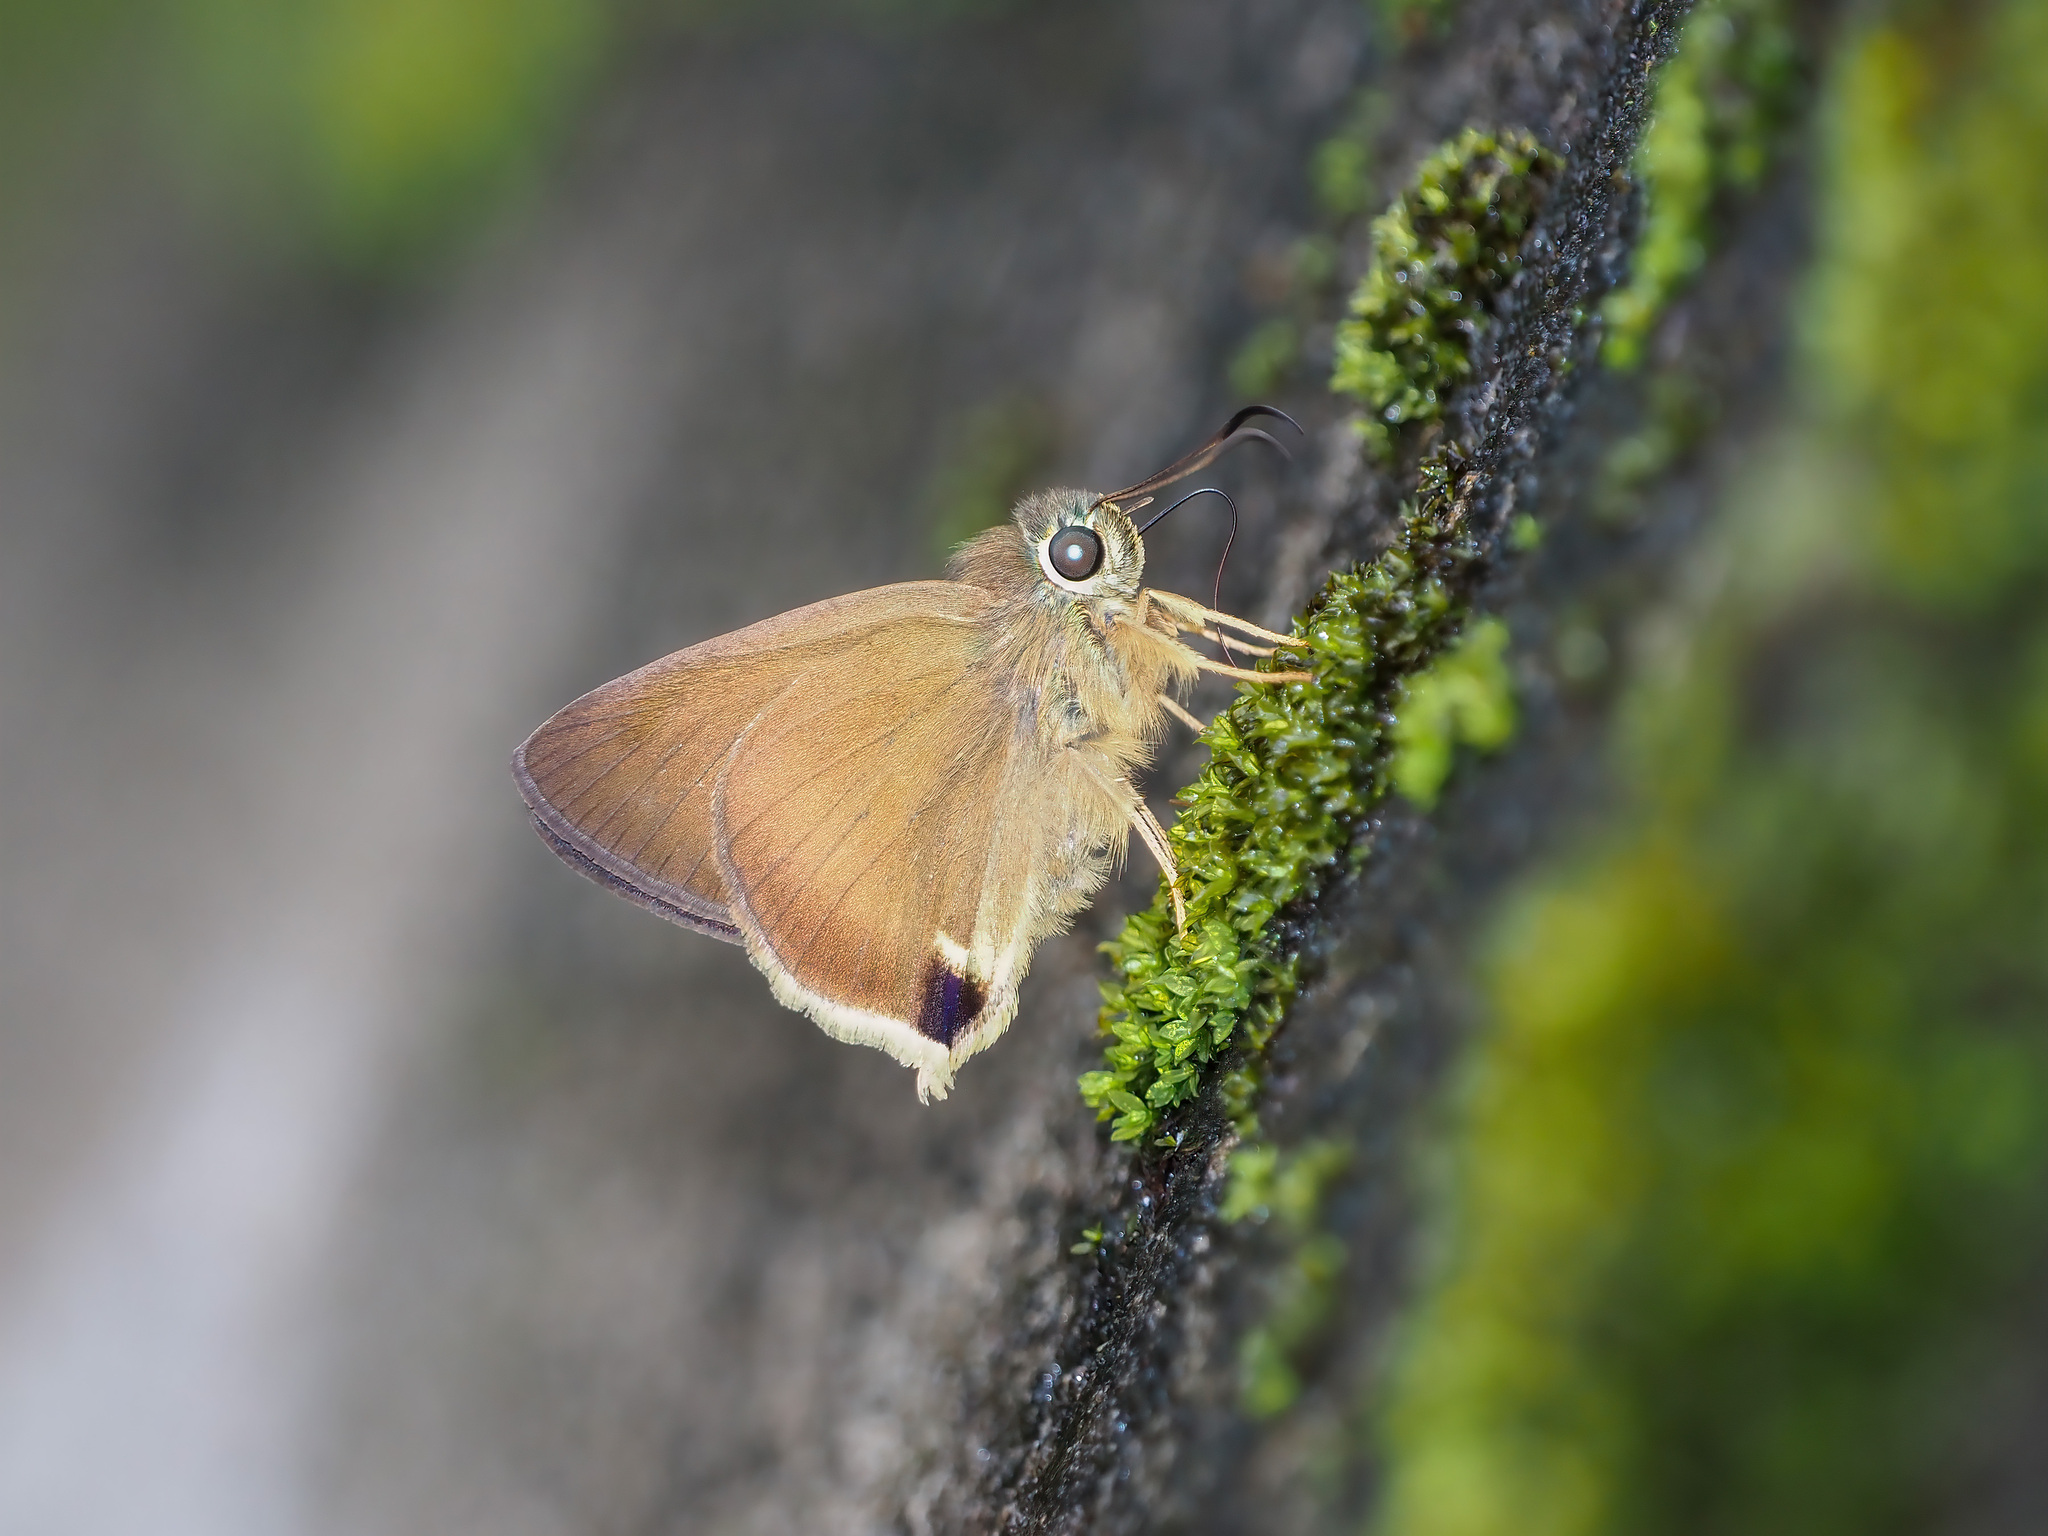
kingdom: Animalia
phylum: Arthropoda
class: Insecta
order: Lepidoptera
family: Hesperiidae
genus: Hasora
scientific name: Hasora mus
